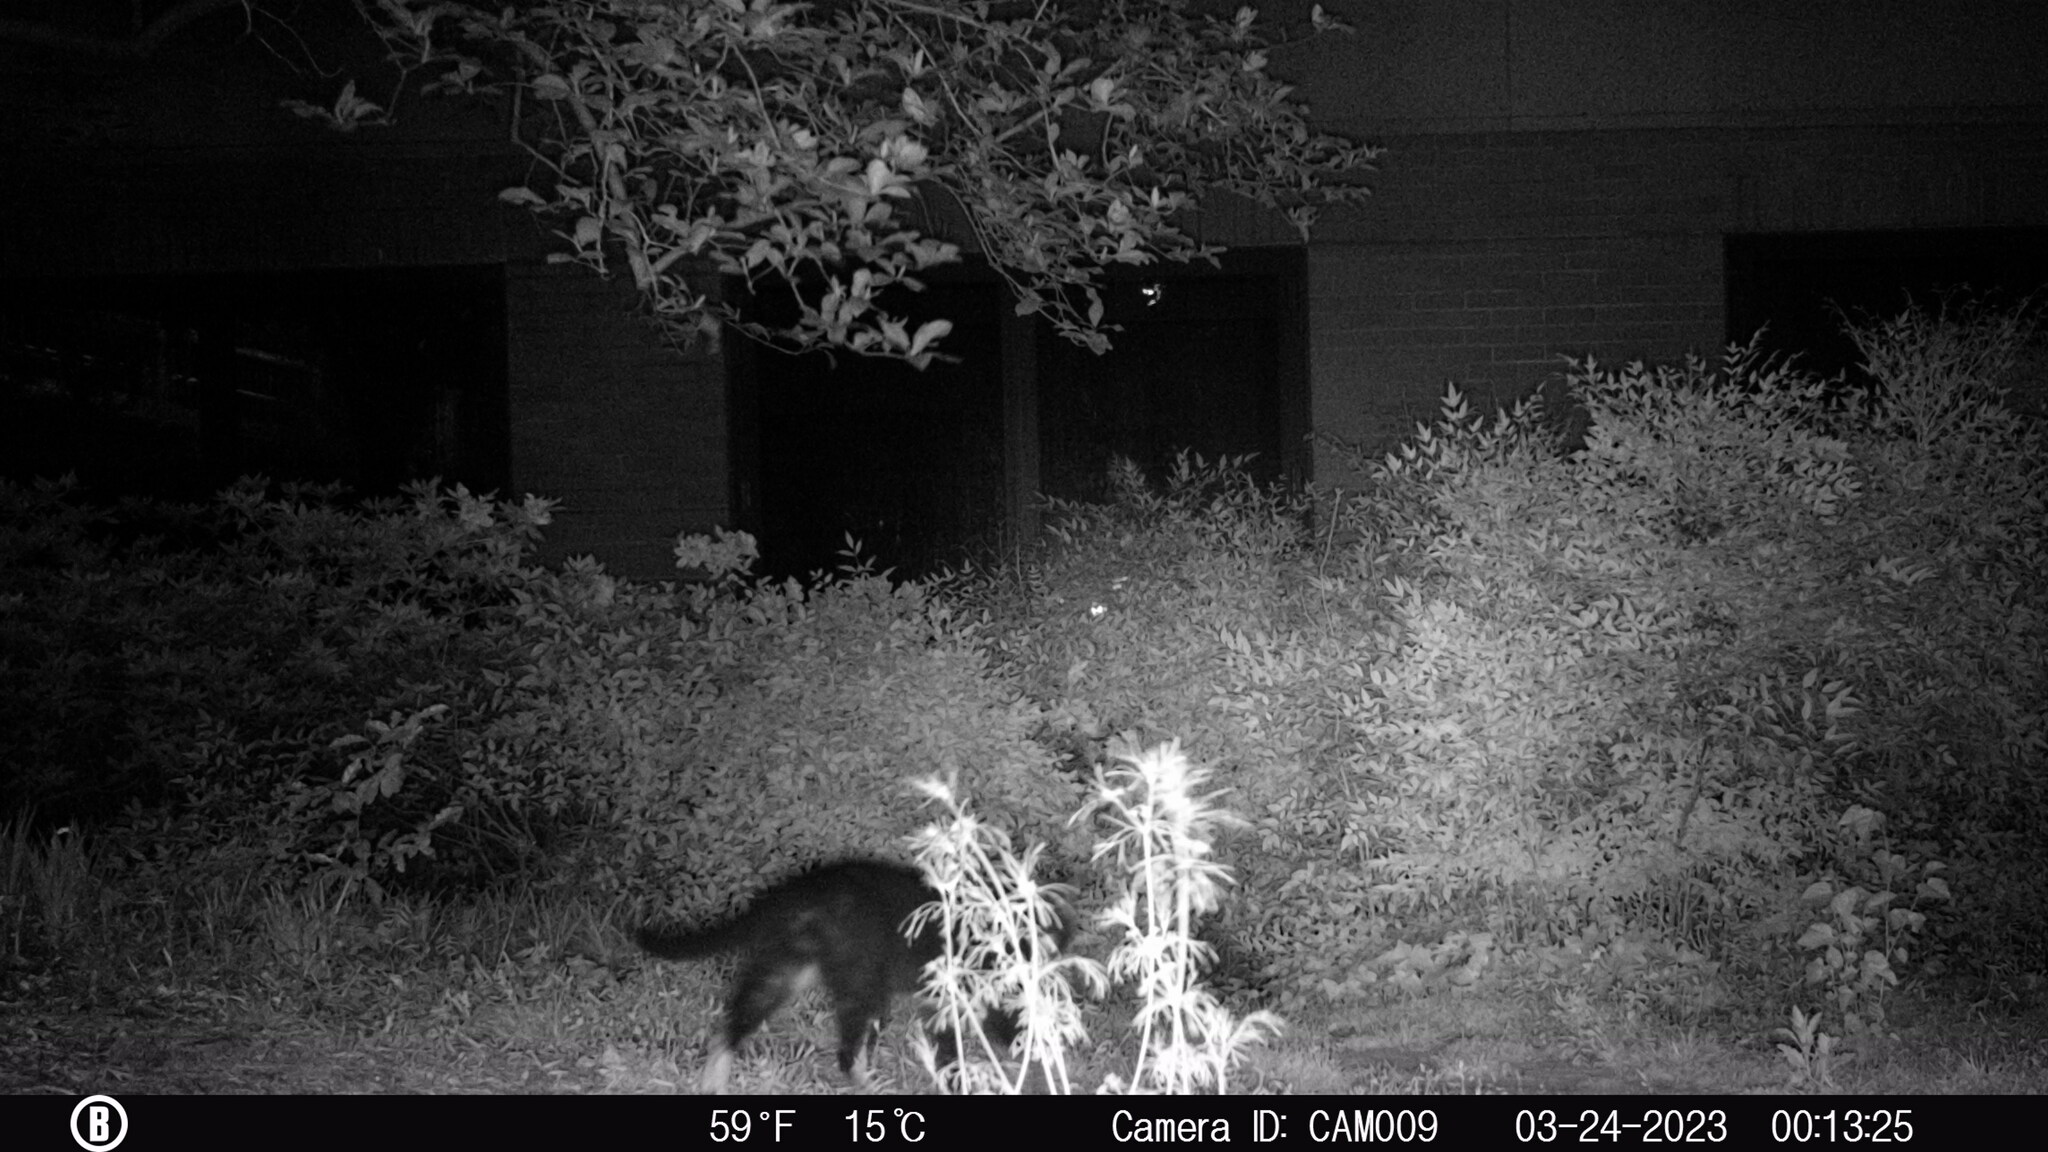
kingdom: Animalia
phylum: Chordata
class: Mammalia
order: Carnivora
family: Felidae
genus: Felis
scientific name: Felis catus
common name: Domestic cat
